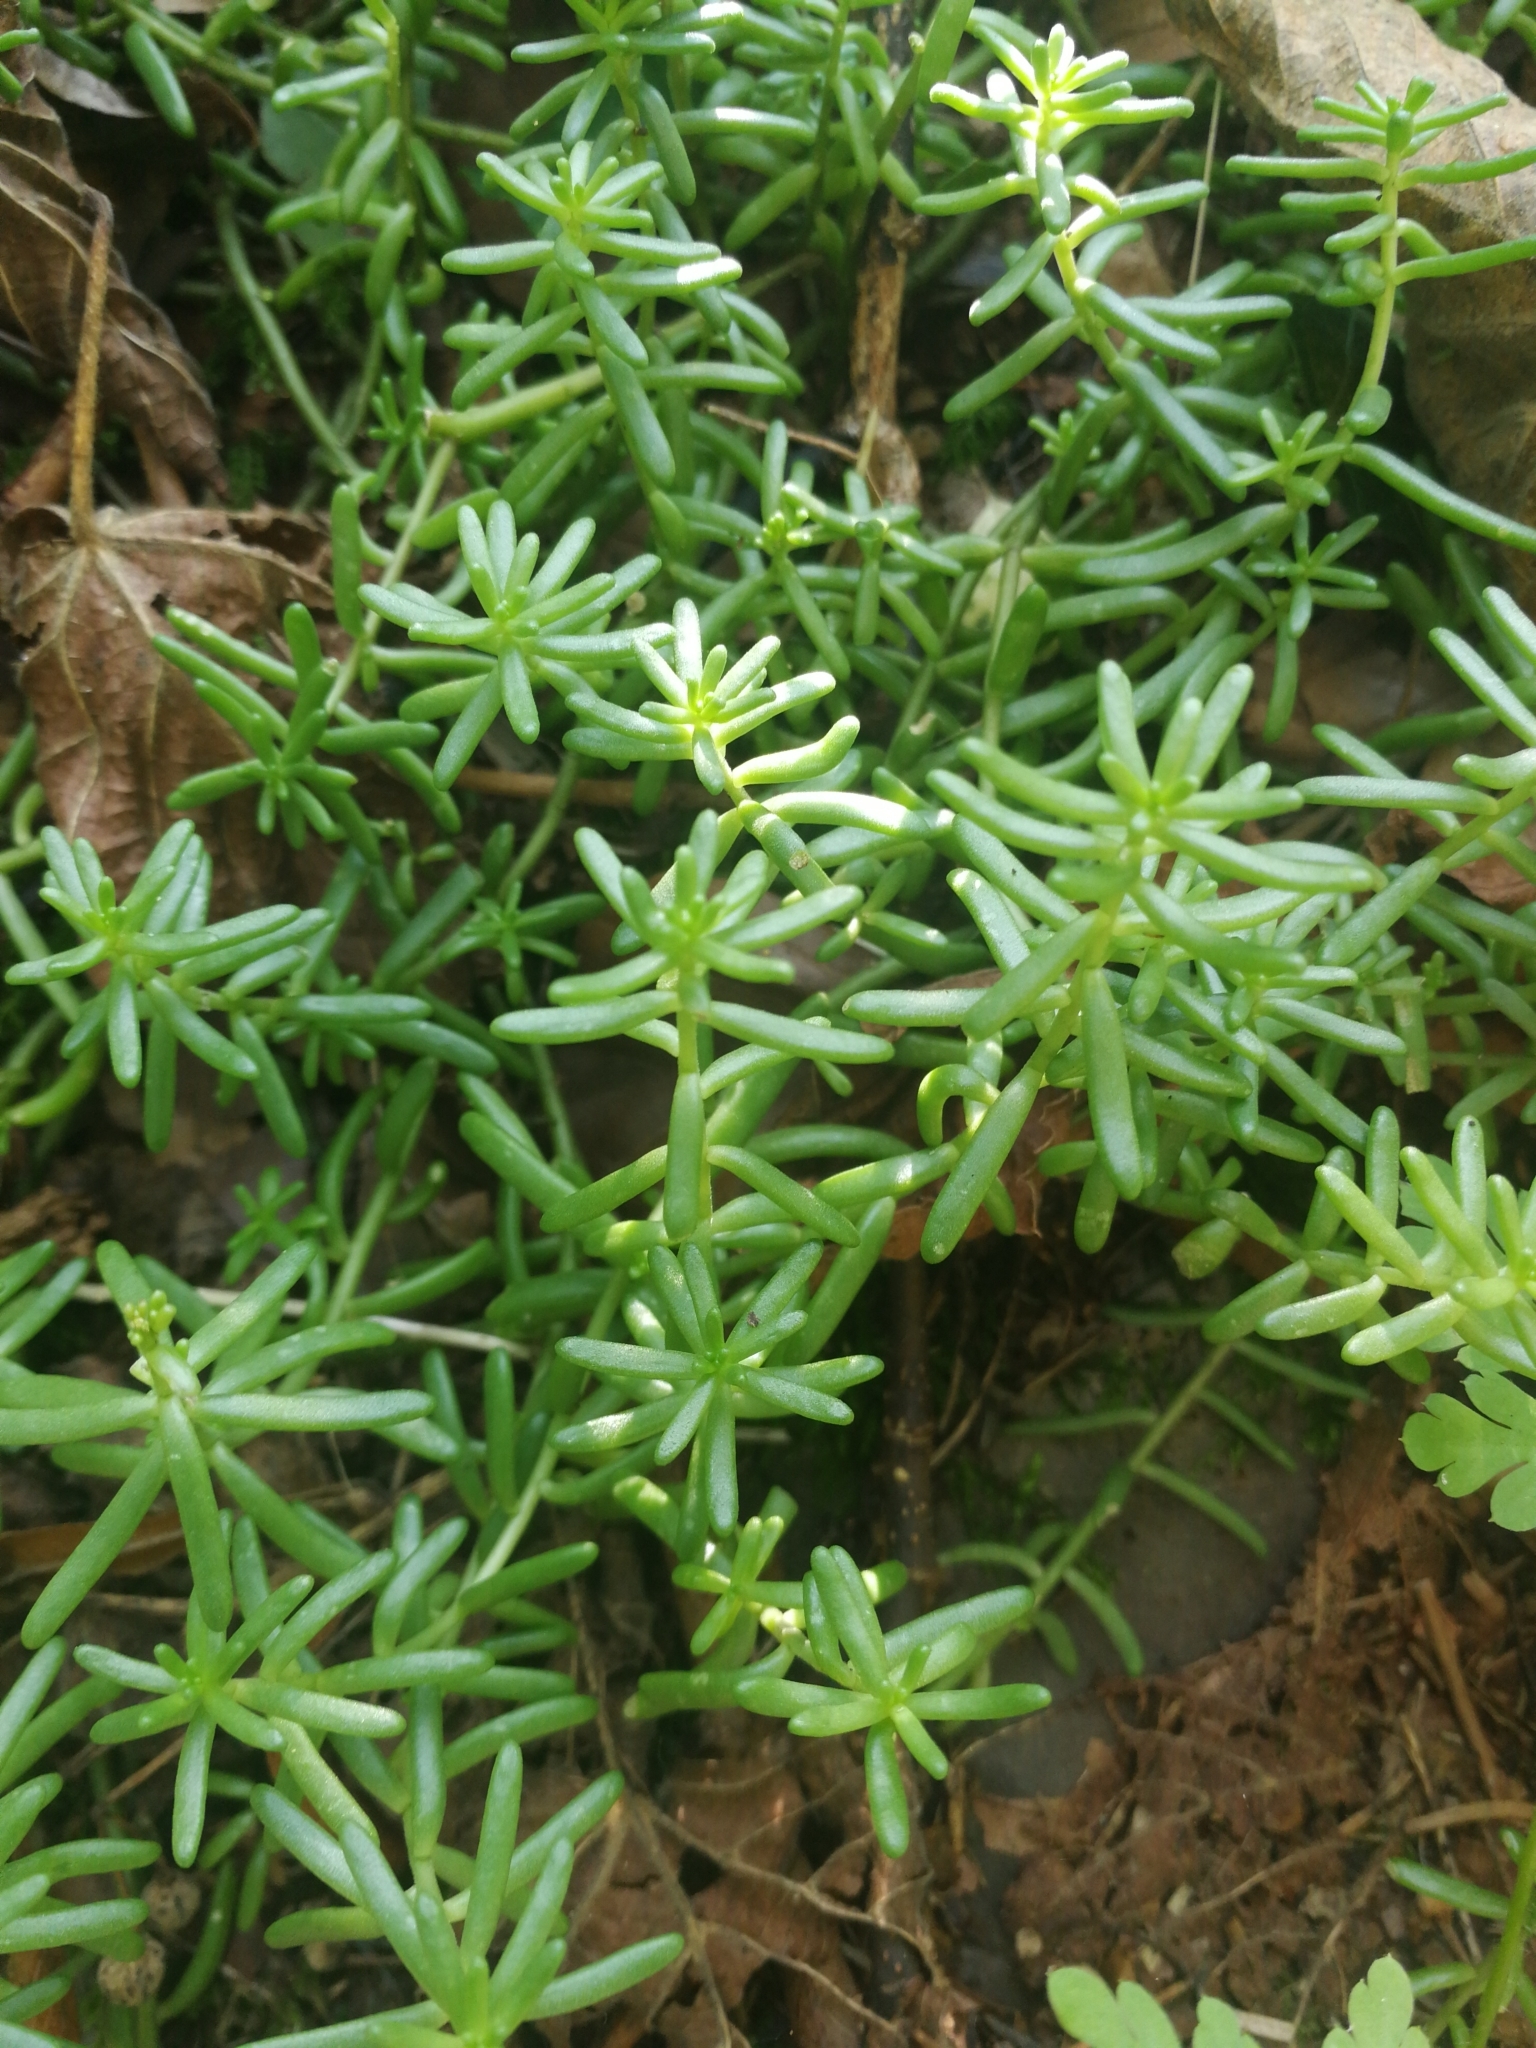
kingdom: Plantae
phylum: Tracheophyta
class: Magnoliopsida
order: Saxifragales
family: Crassulaceae
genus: Sedum
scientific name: Sedum album
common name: White stonecrop
